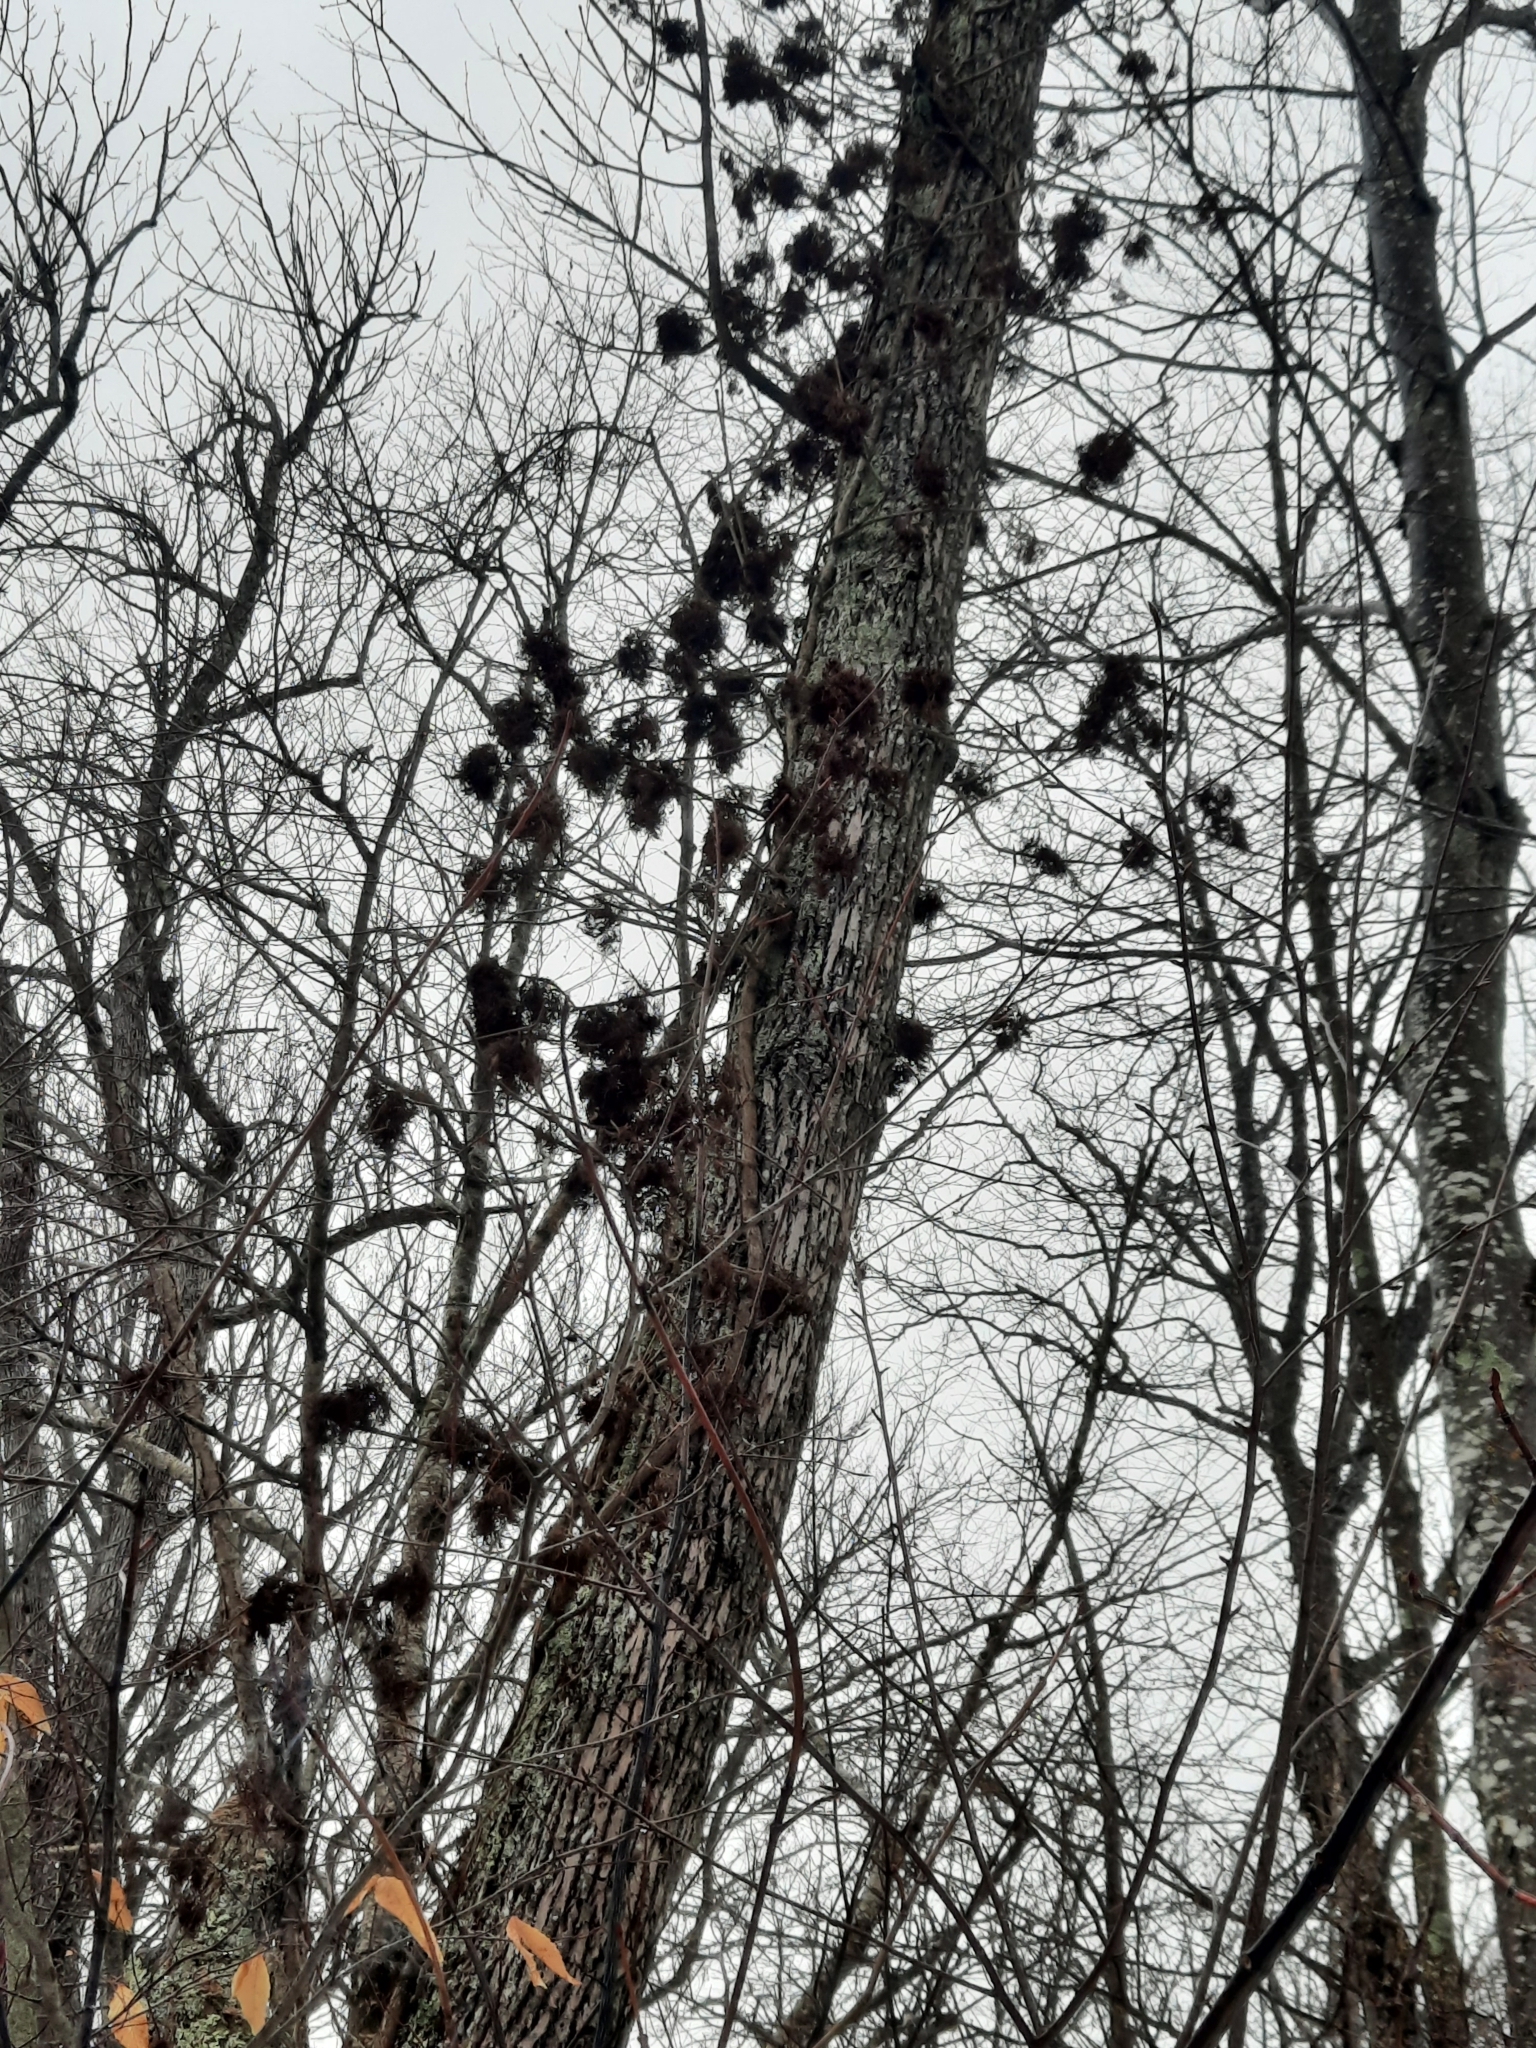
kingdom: Plantae
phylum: Tracheophyta
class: Magnoliopsida
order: Sapindales
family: Anacardiaceae
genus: Toxicodendron
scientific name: Toxicodendron radicans
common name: Poison ivy
